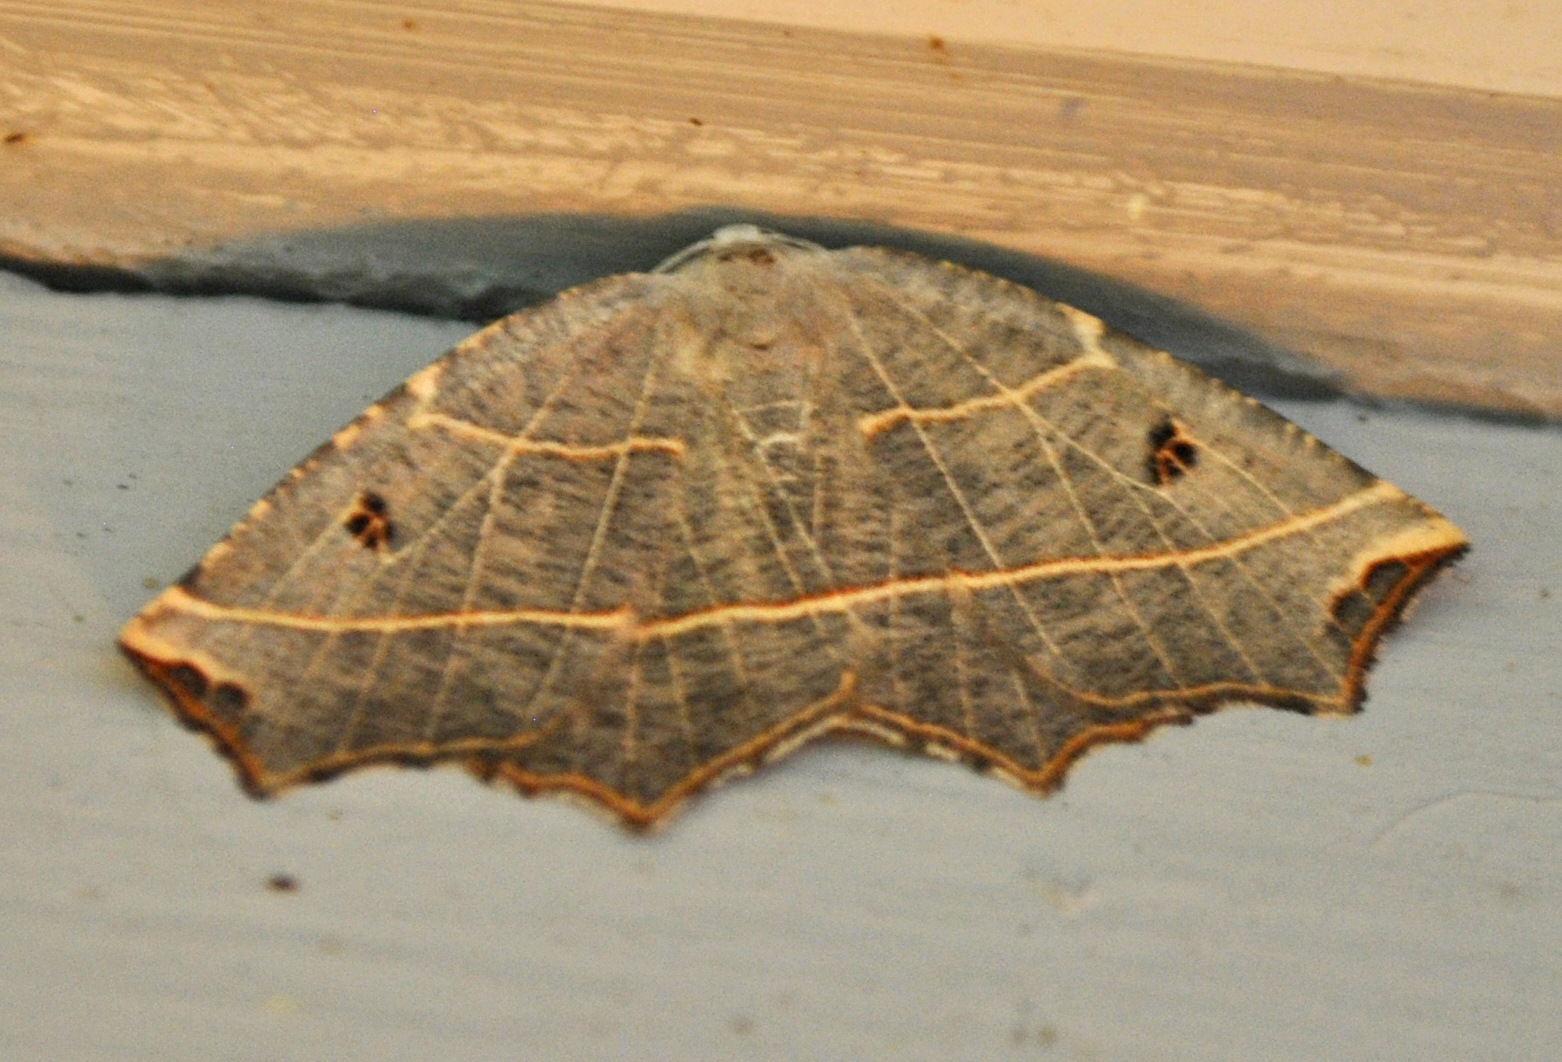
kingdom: Animalia
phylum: Arthropoda
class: Insecta
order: Lepidoptera
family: Geometridae
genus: Metanema
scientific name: Metanema inatomaria
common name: Pale metanema
